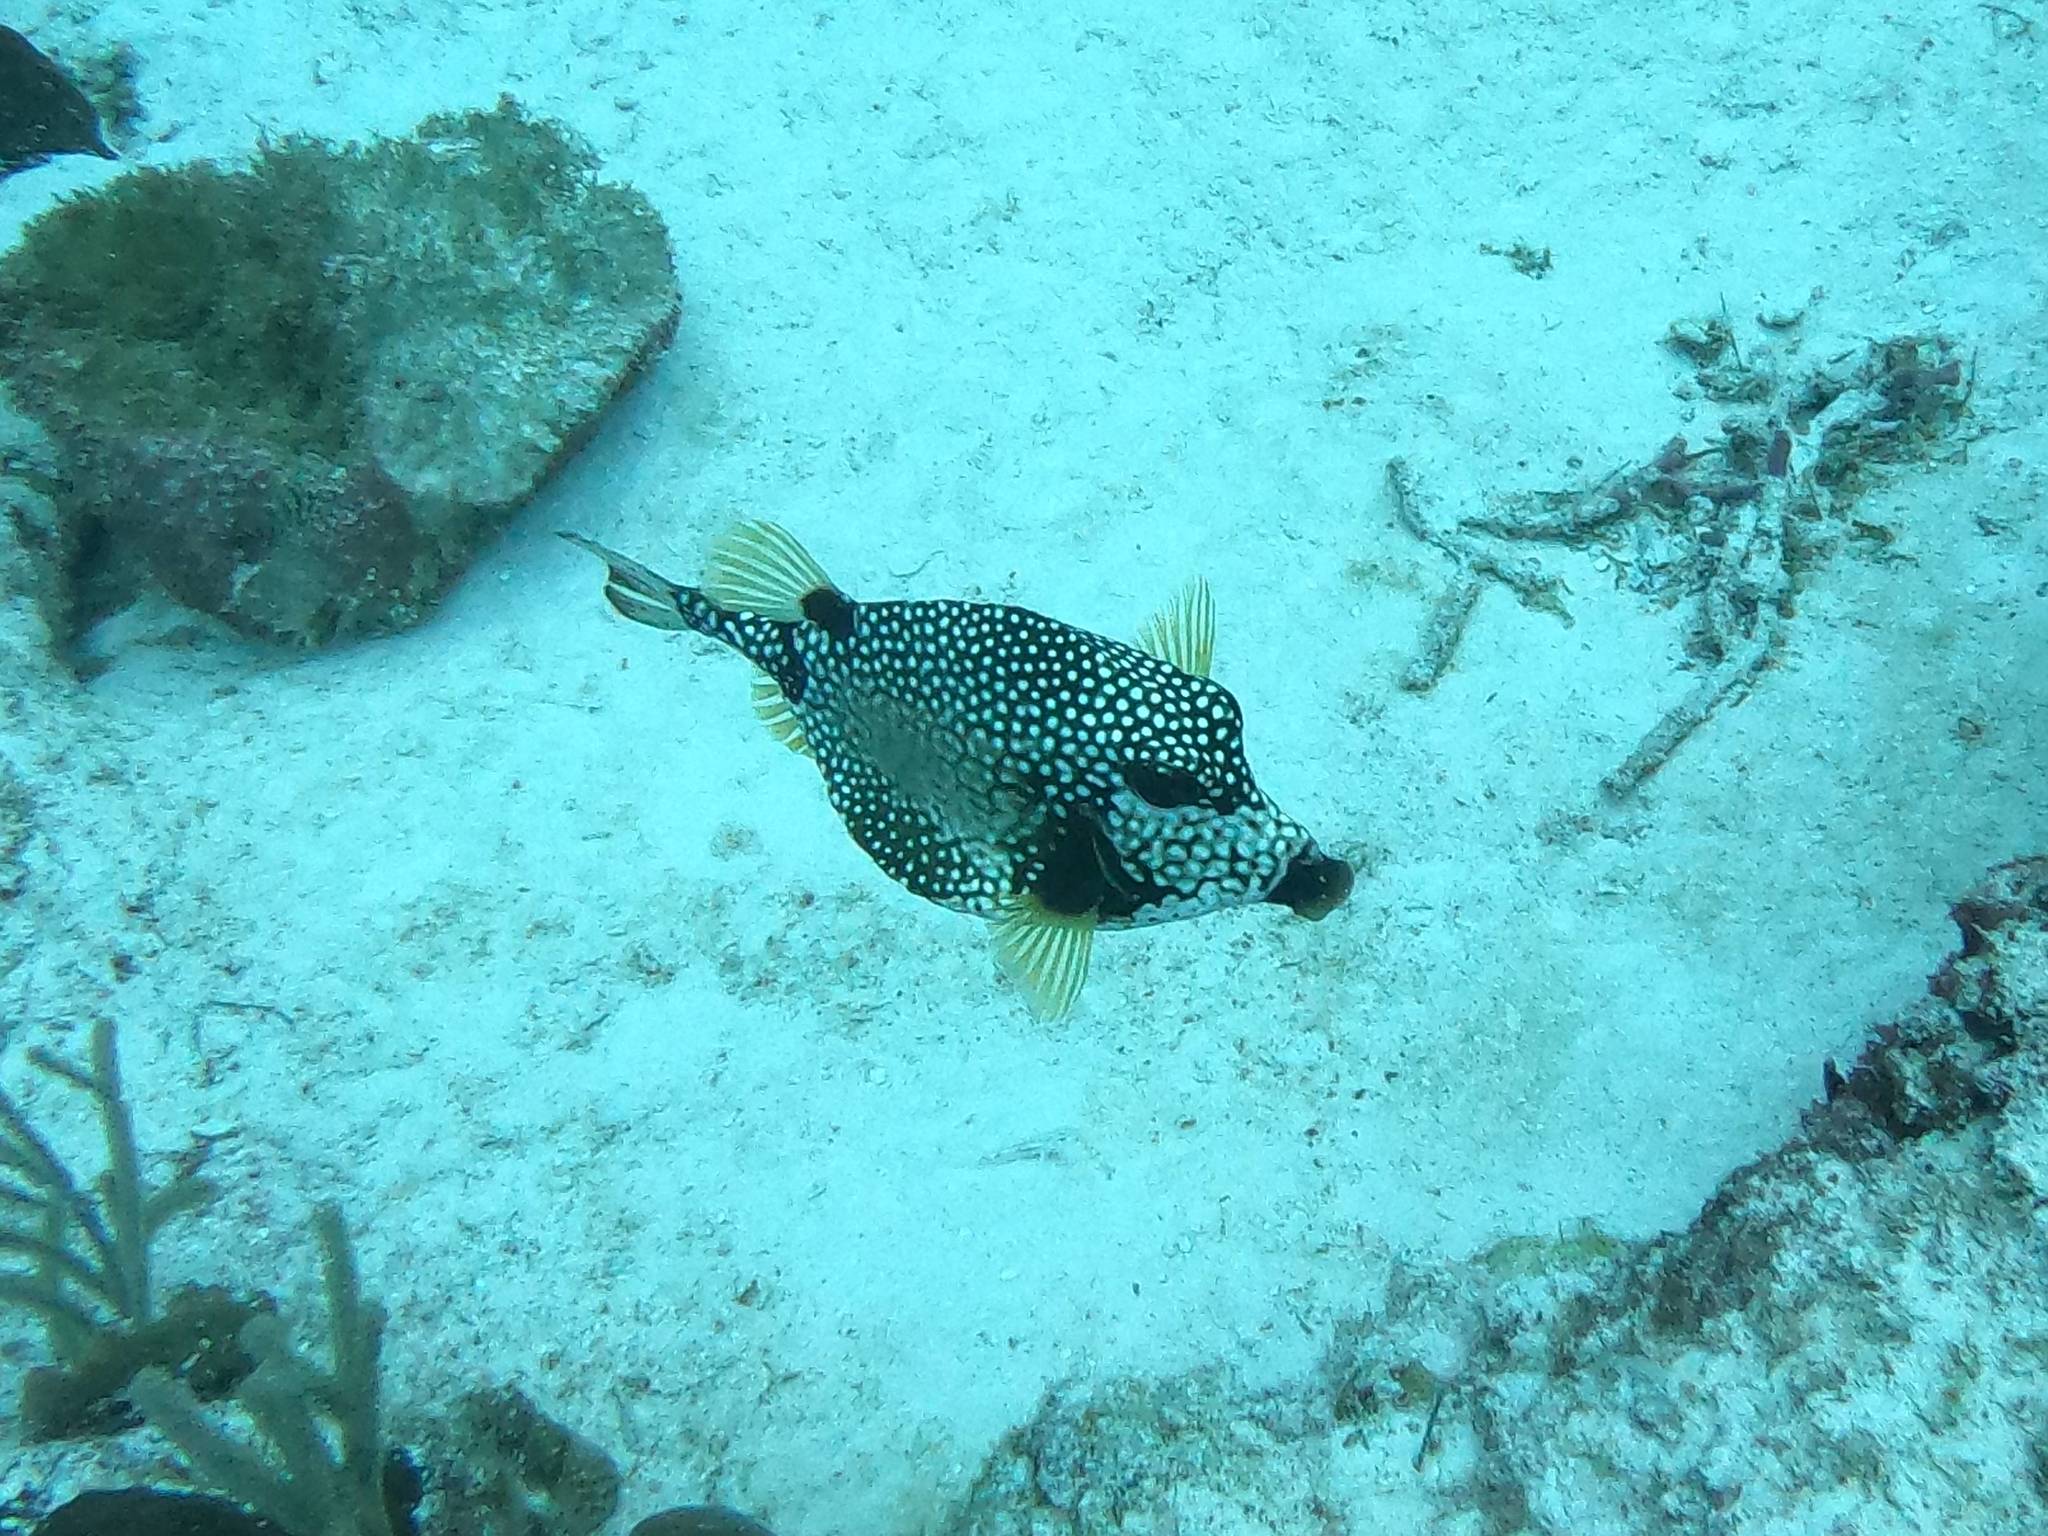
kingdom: Animalia
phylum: Chordata
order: Tetraodontiformes
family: Ostraciidae
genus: Lactophrys
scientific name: Lactophrys triqueter
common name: Smooth trunkfish
